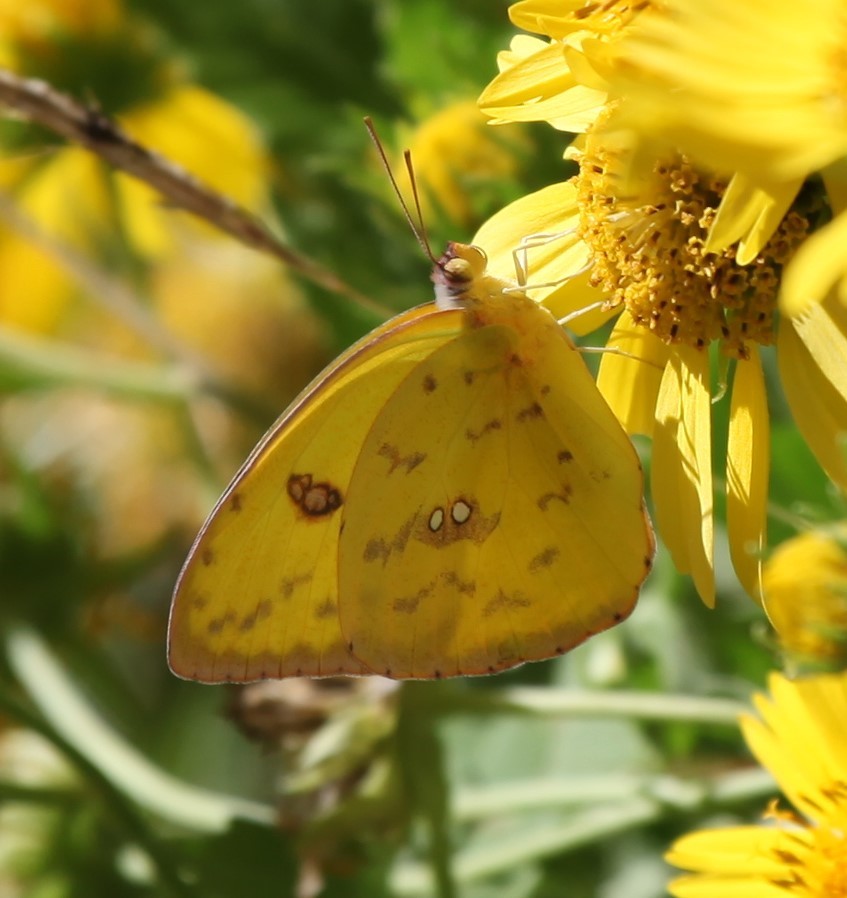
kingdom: Animalia
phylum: Arthropoda
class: Insecta
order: Lepidoptera
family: Pieridae
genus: Phoebis
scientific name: Phoebis sennae
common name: Cloudless sulphur
